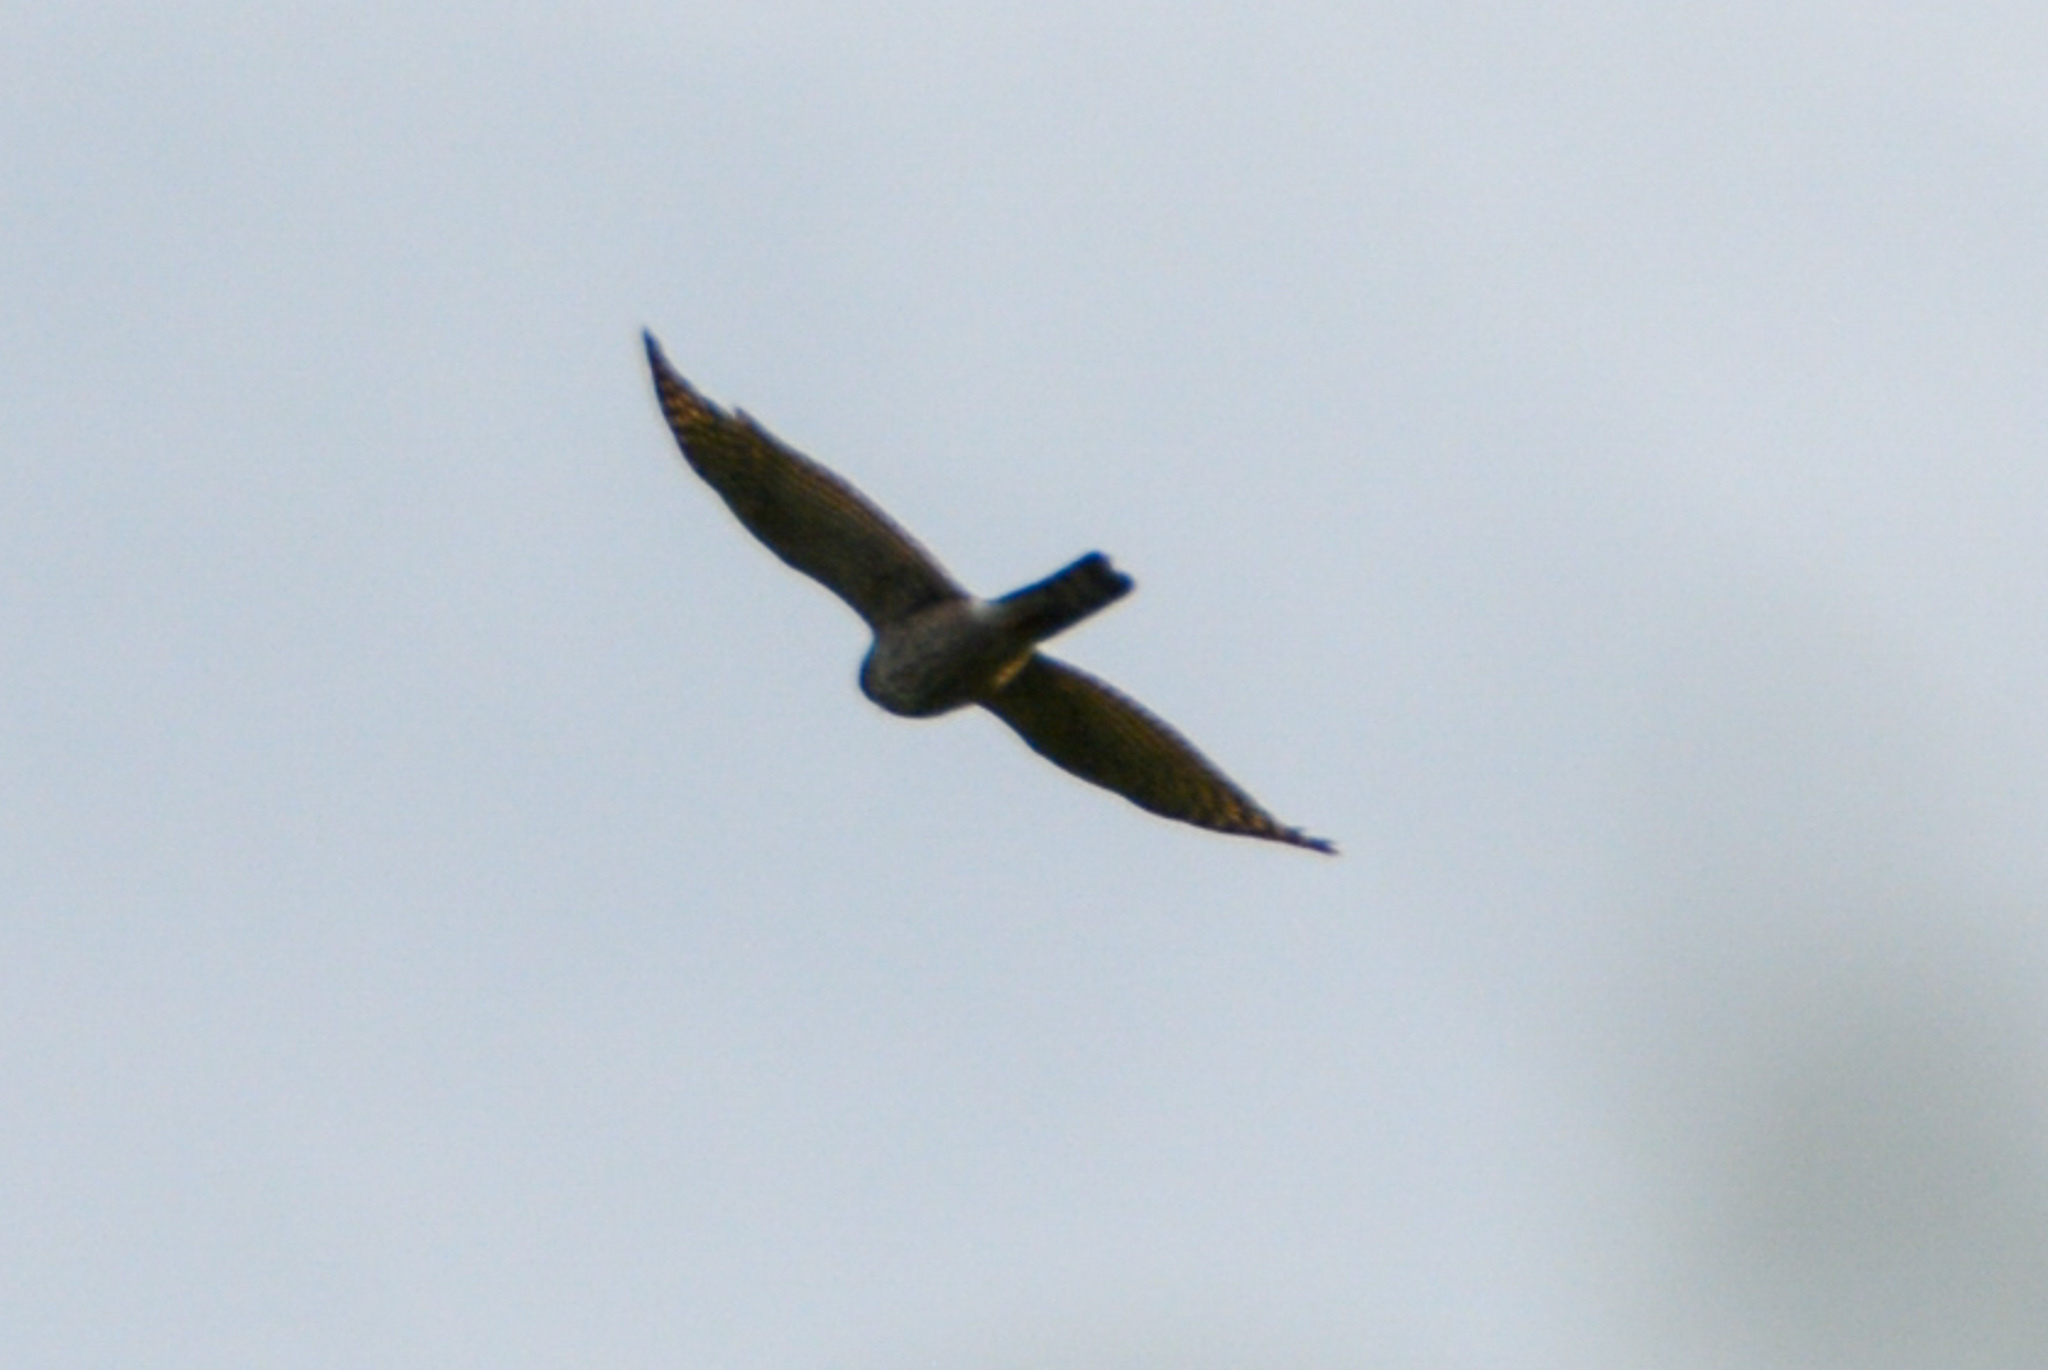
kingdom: Animalia
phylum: Chordata
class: Aves
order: Accipitriformes
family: Accipitridae
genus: Accipiter
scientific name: Accipiter striatus
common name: Sharp-shinned hawk
